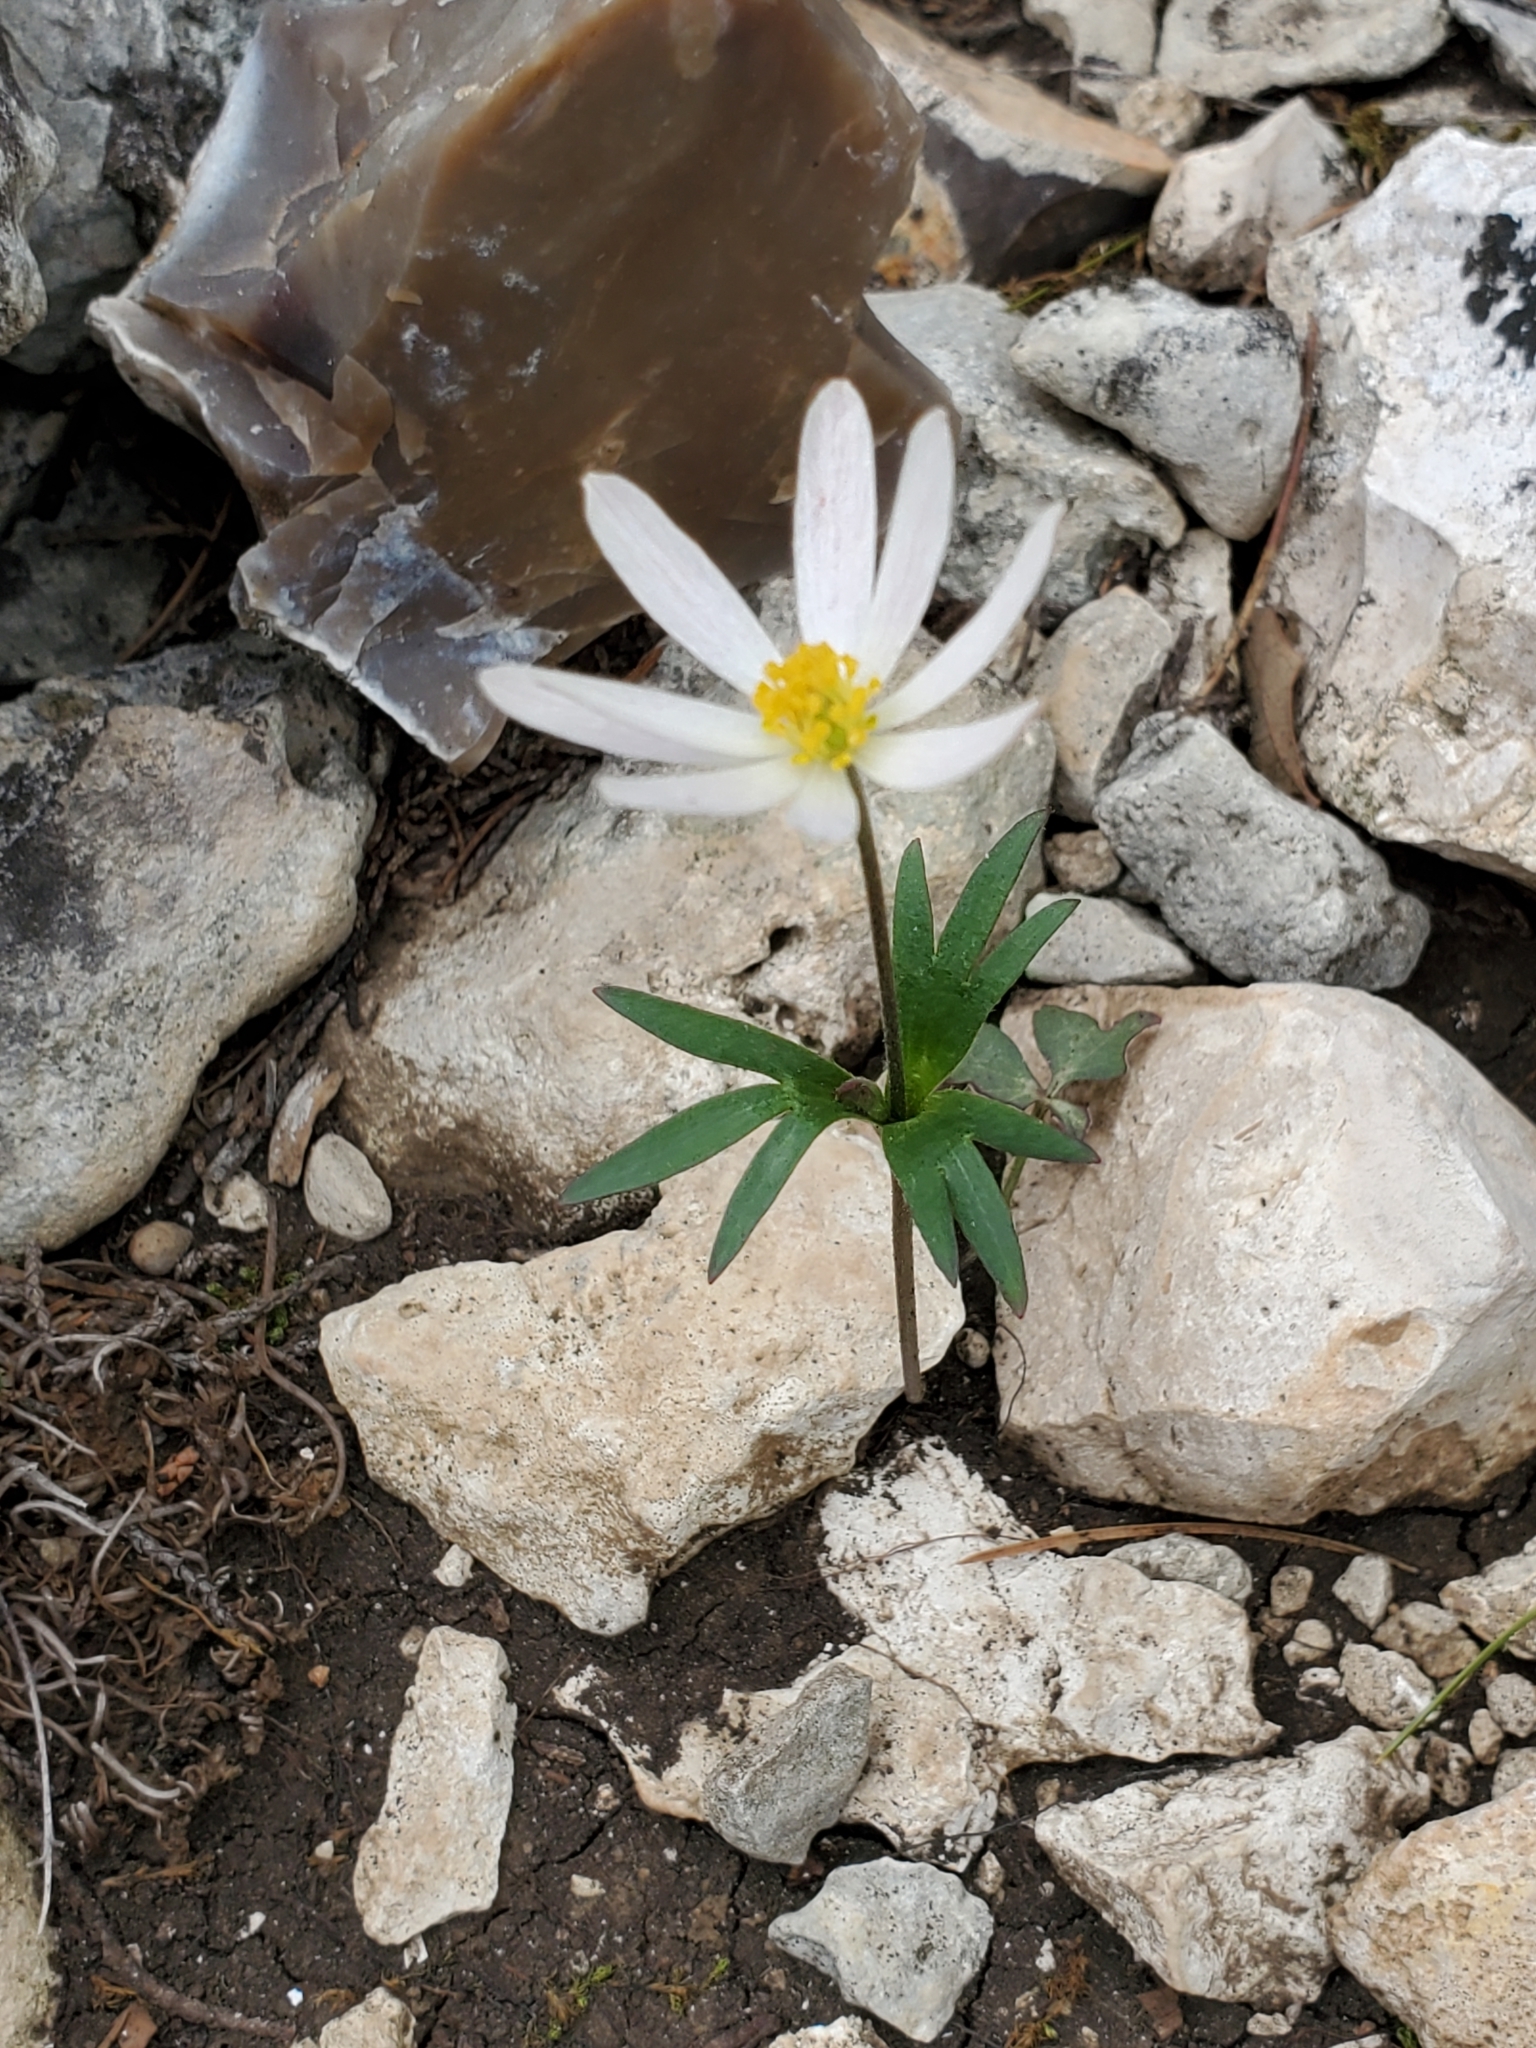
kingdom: Plantae
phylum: Tracheophyta
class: Magnoliopsida
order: Ranunculales
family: Ranunculaceae
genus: Anemone
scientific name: Anemone edwardsiana
